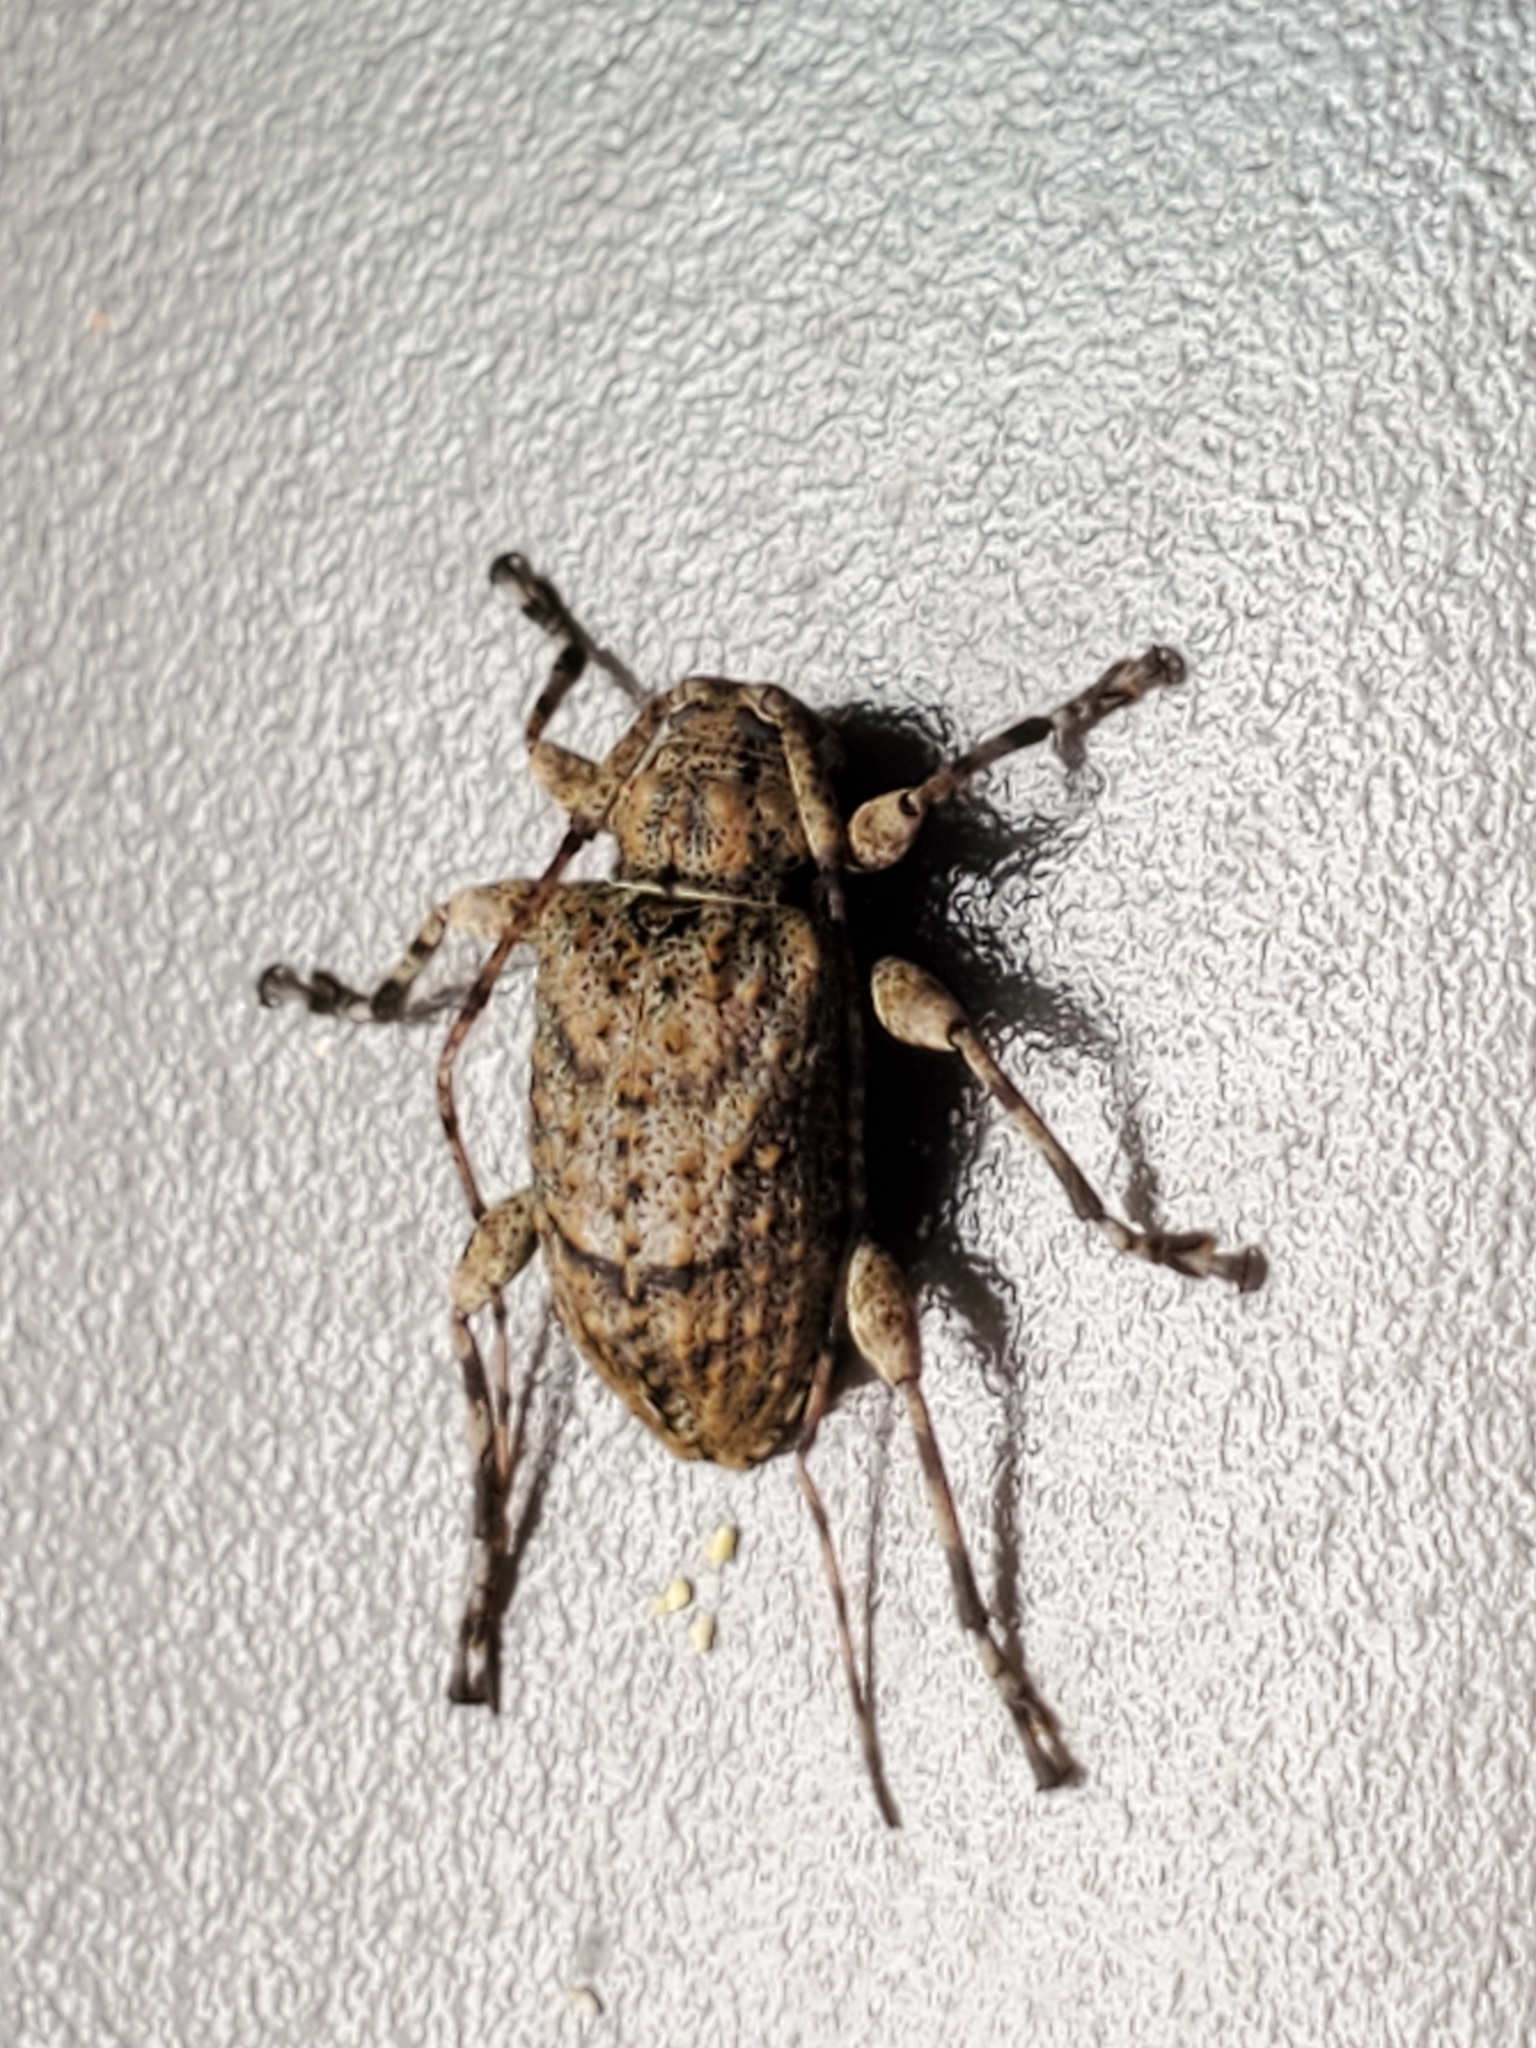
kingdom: Animalia
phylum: Arthropoda
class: Insecta
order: Coleoptera
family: Cerambycidae
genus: Leptostylopsis
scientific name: Leptostylopsis terraecolor
